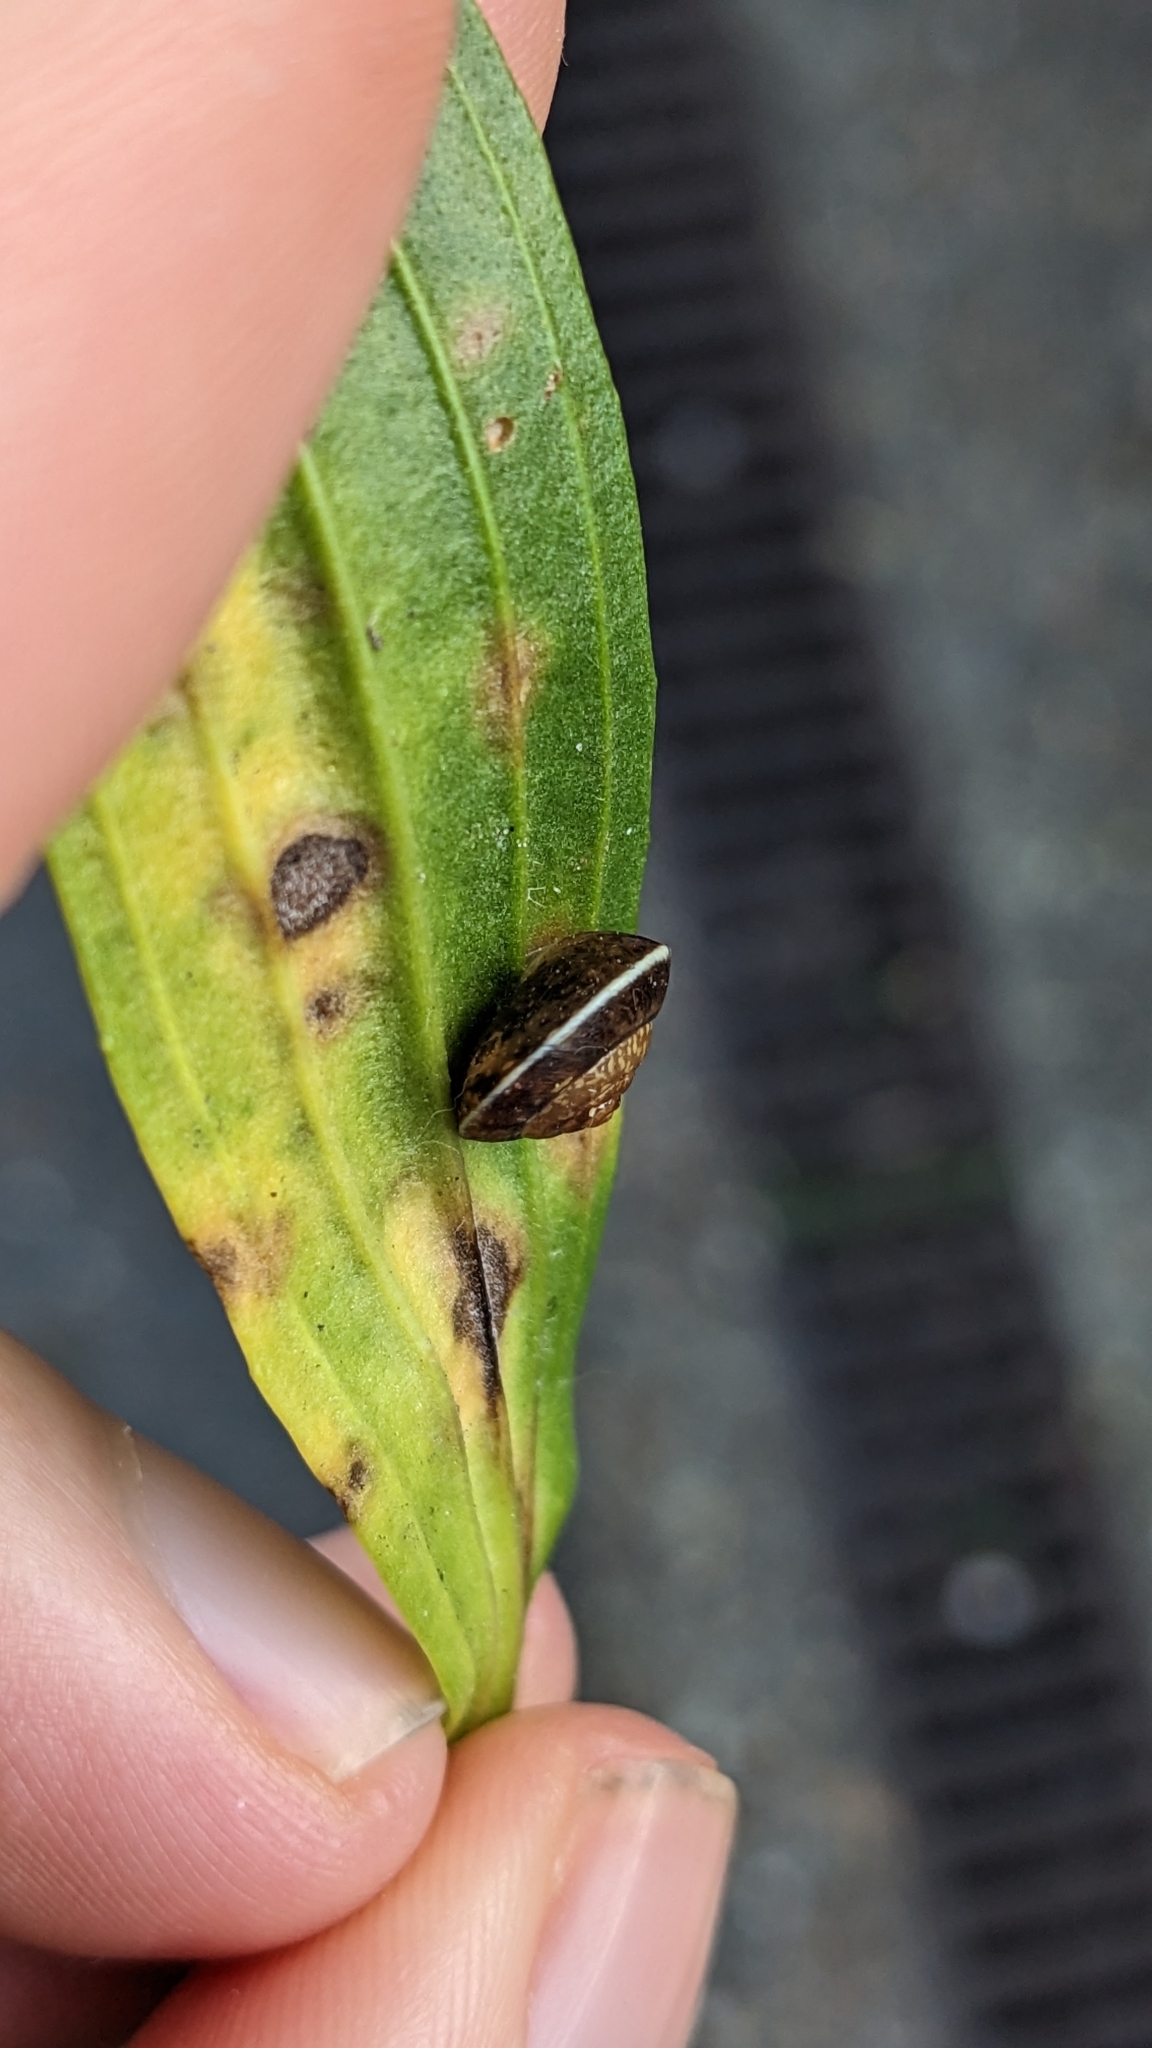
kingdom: Animalia
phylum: Mollusca
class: Gastropoda
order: Stylommatophora
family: Hygromiidae
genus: Hygromia
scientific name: Hygromia cinctella
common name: Girdled snail
